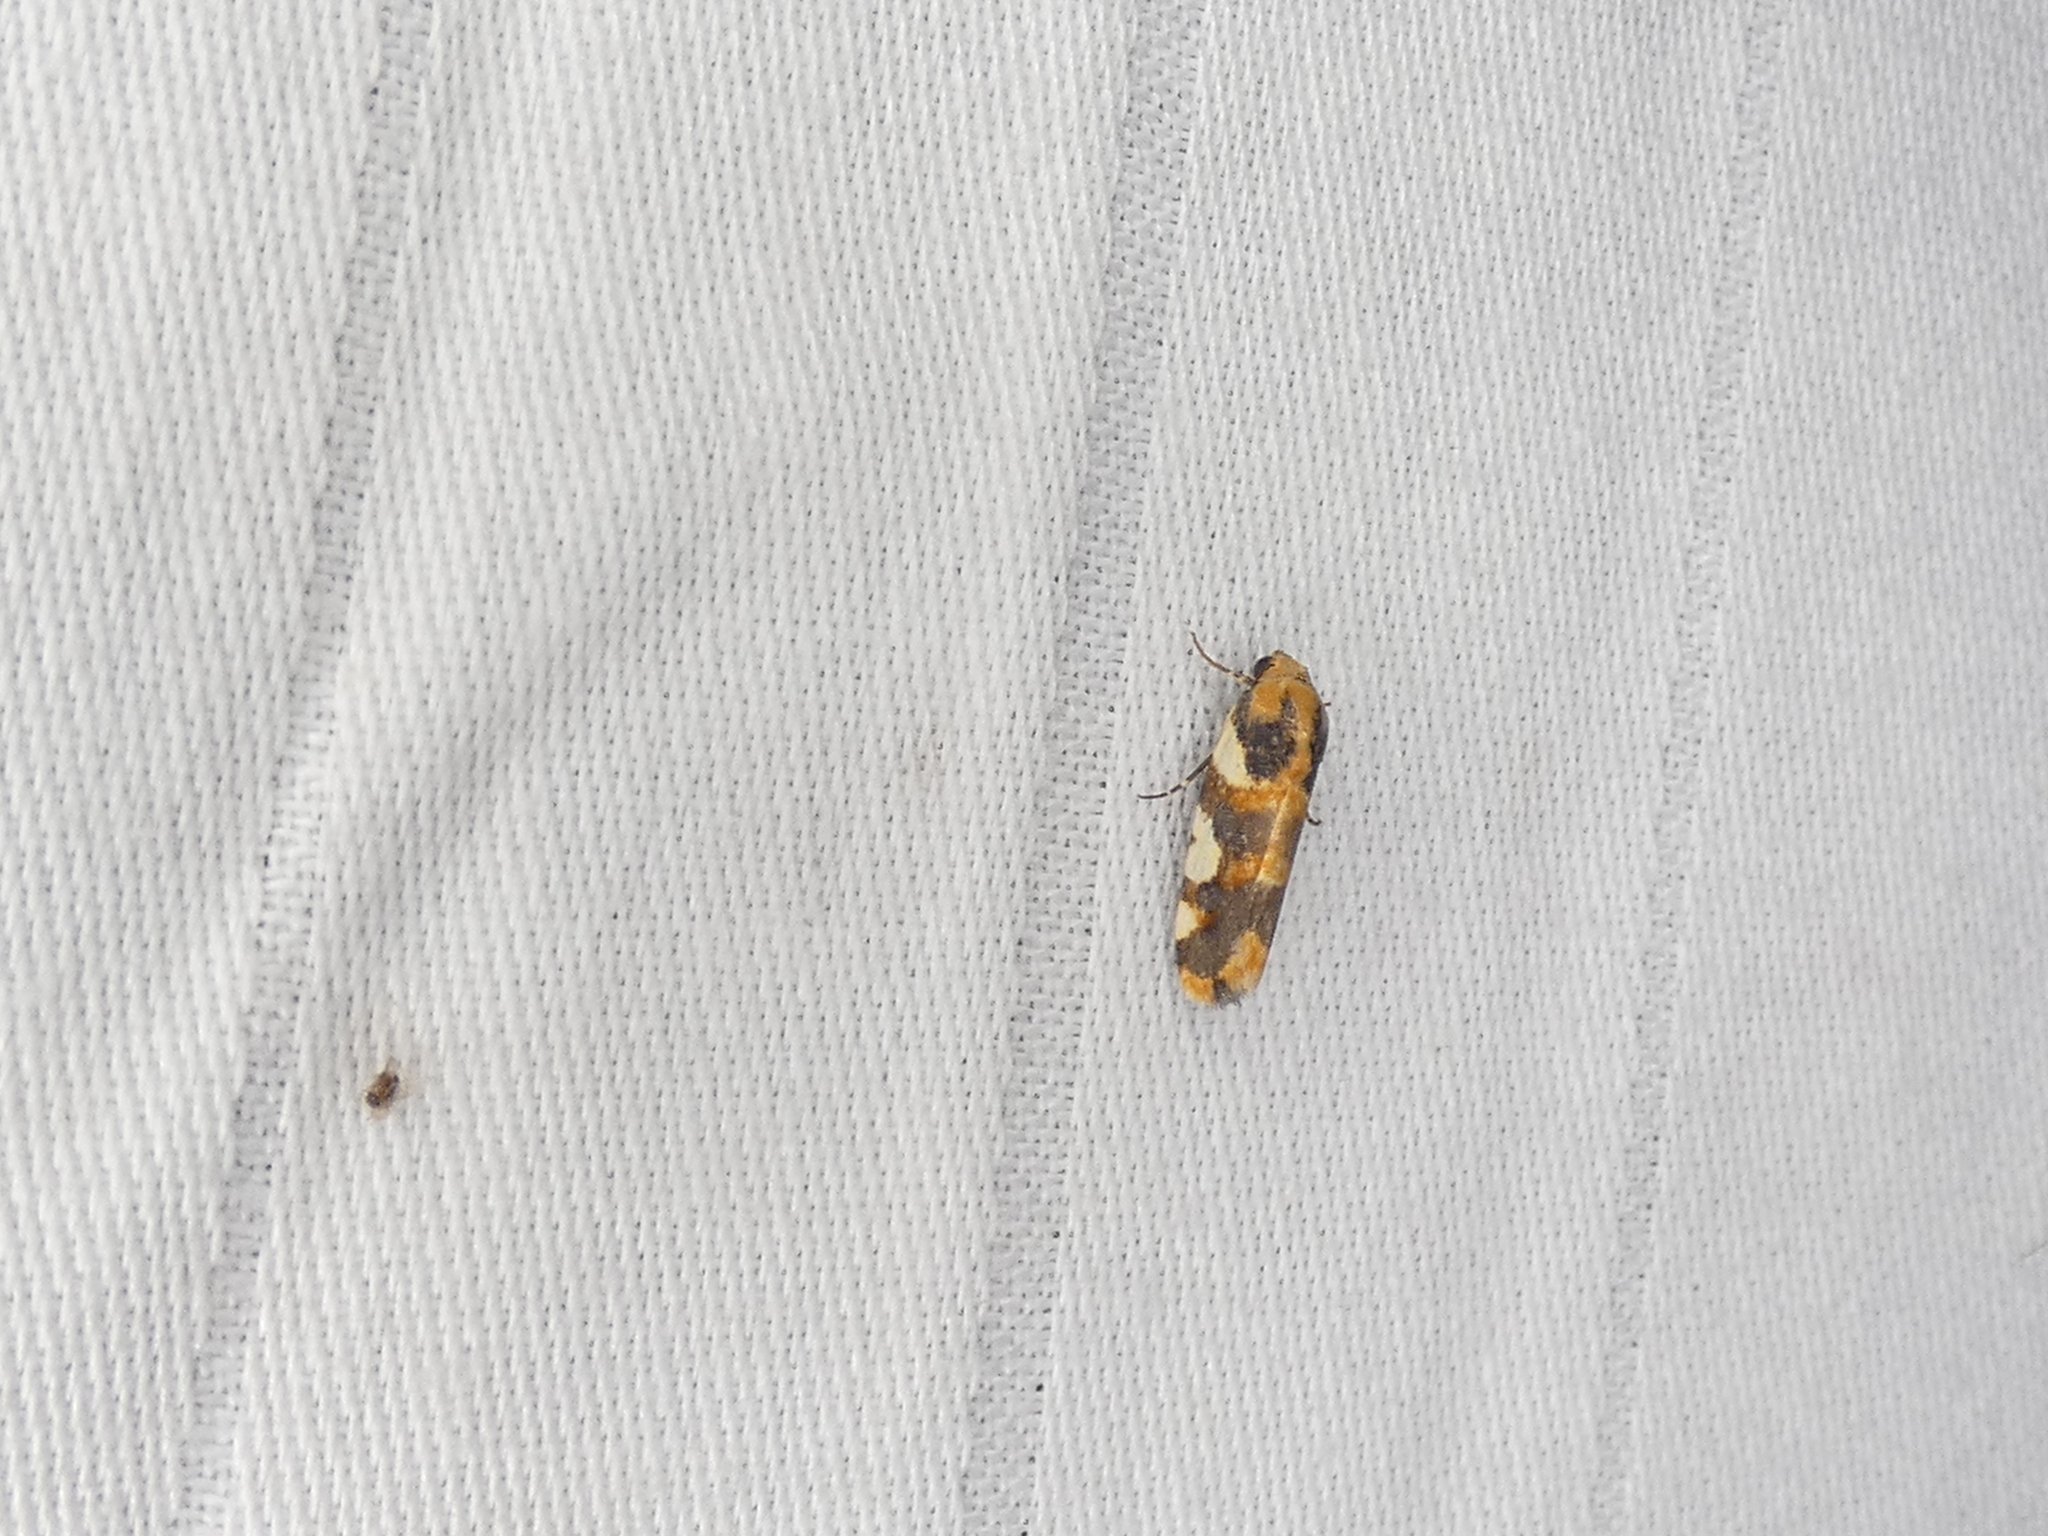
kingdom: Animalia
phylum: Arthropoda
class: Insecta
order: Lepidoptera
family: Noctuidae
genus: Acontia
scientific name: Acontia dama
